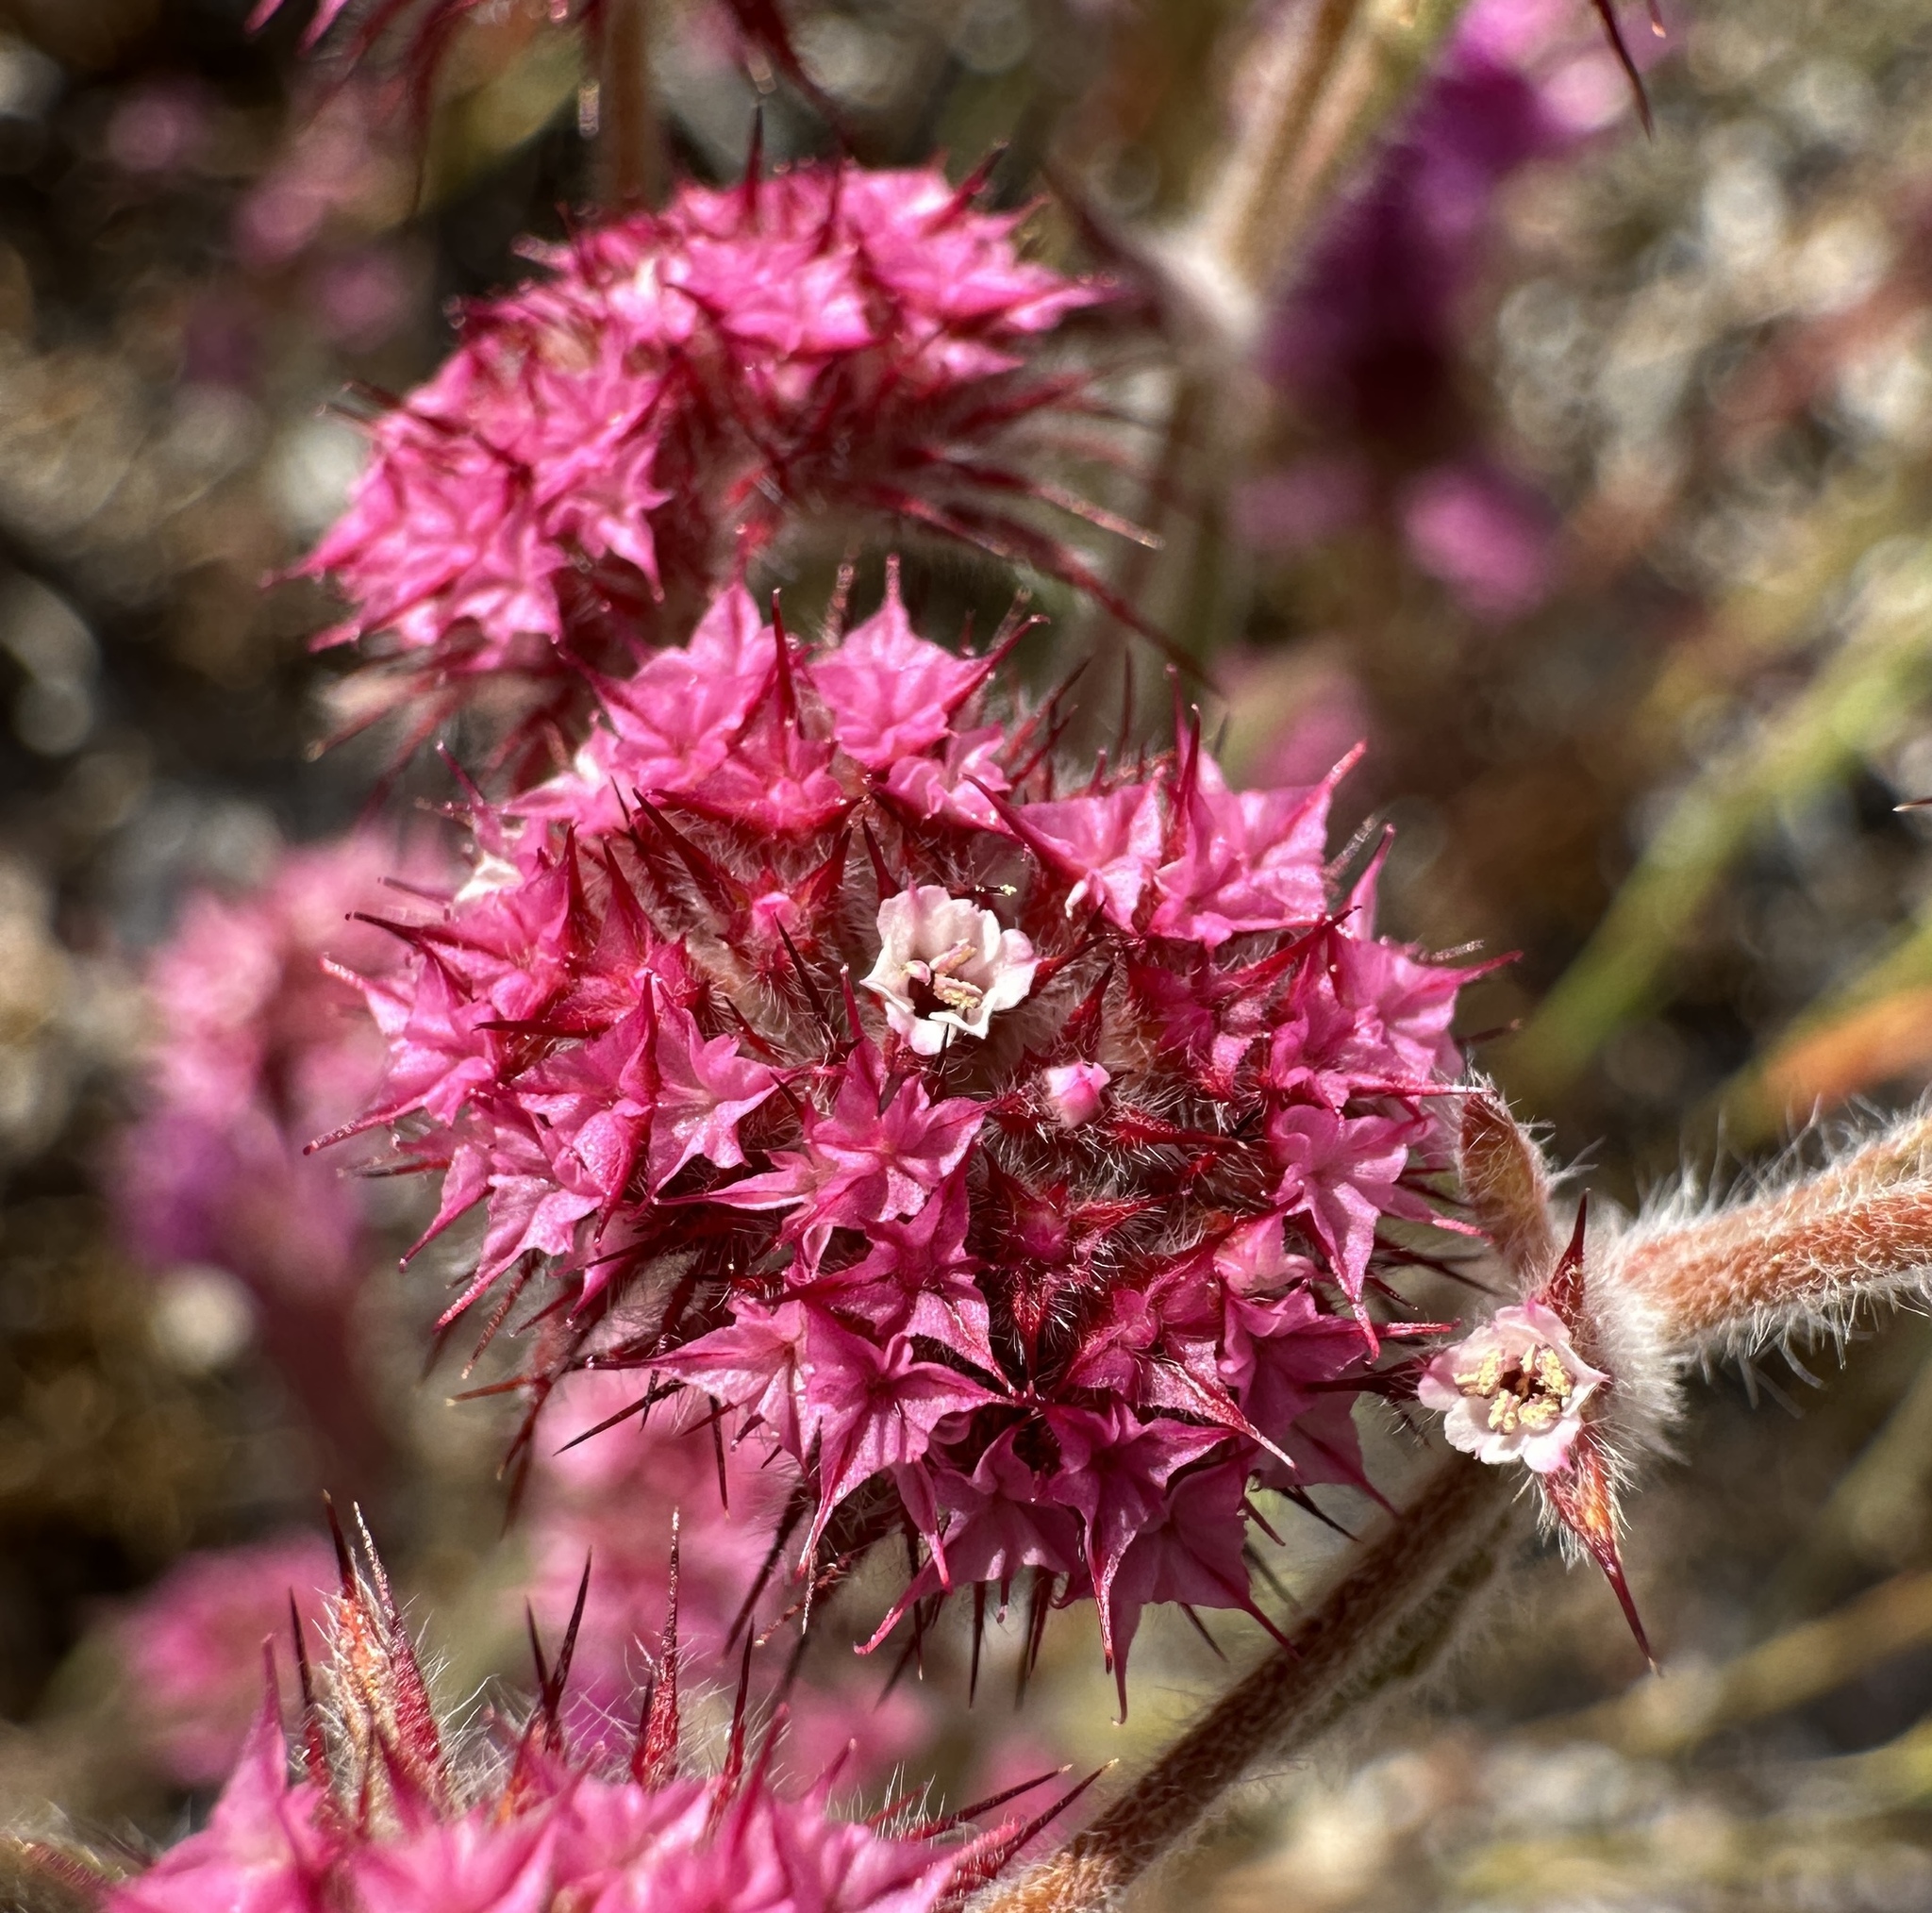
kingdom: Plantae
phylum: Tracheophyta
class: Magnoliopsida
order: Caryophyllales
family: Polygonaceae
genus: Chorizanthe
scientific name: Chorizanthe douglasii
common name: Douglas's spineflower
